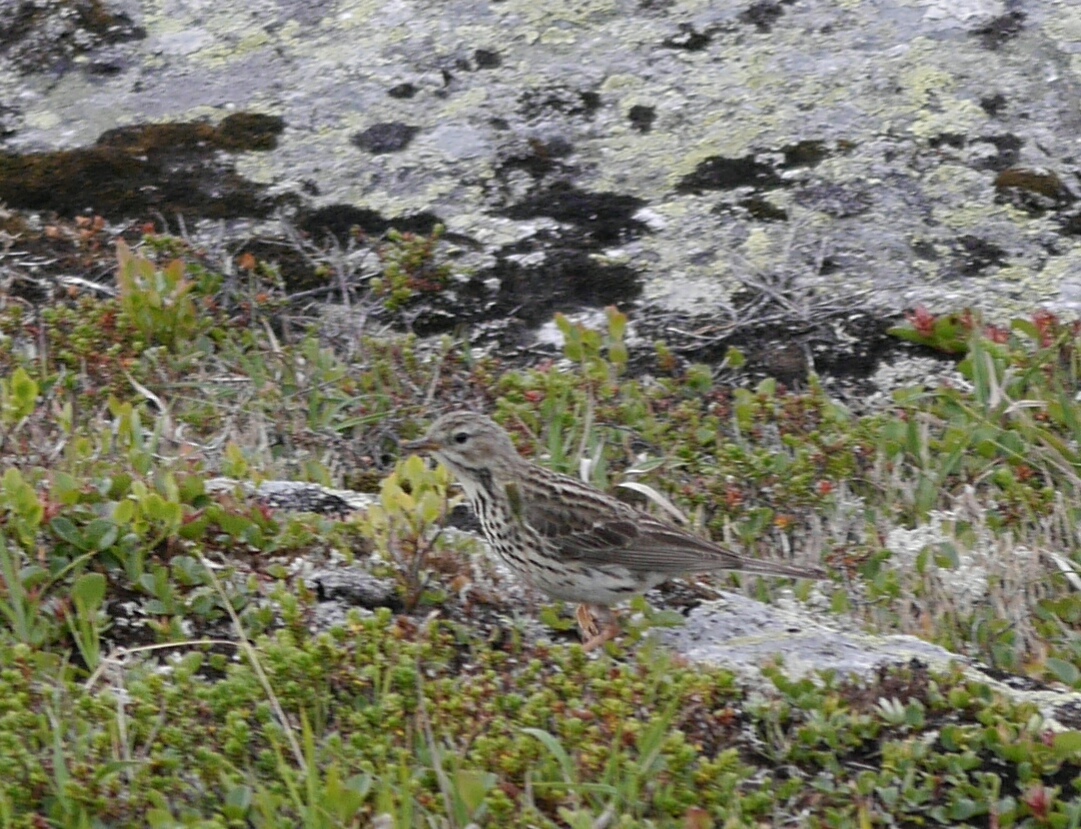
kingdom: Animalia
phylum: Chordata
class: Aves
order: Passeriformes
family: Motacillidae
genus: Anthus
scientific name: Anthus pratensis
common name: Meadow pipit
